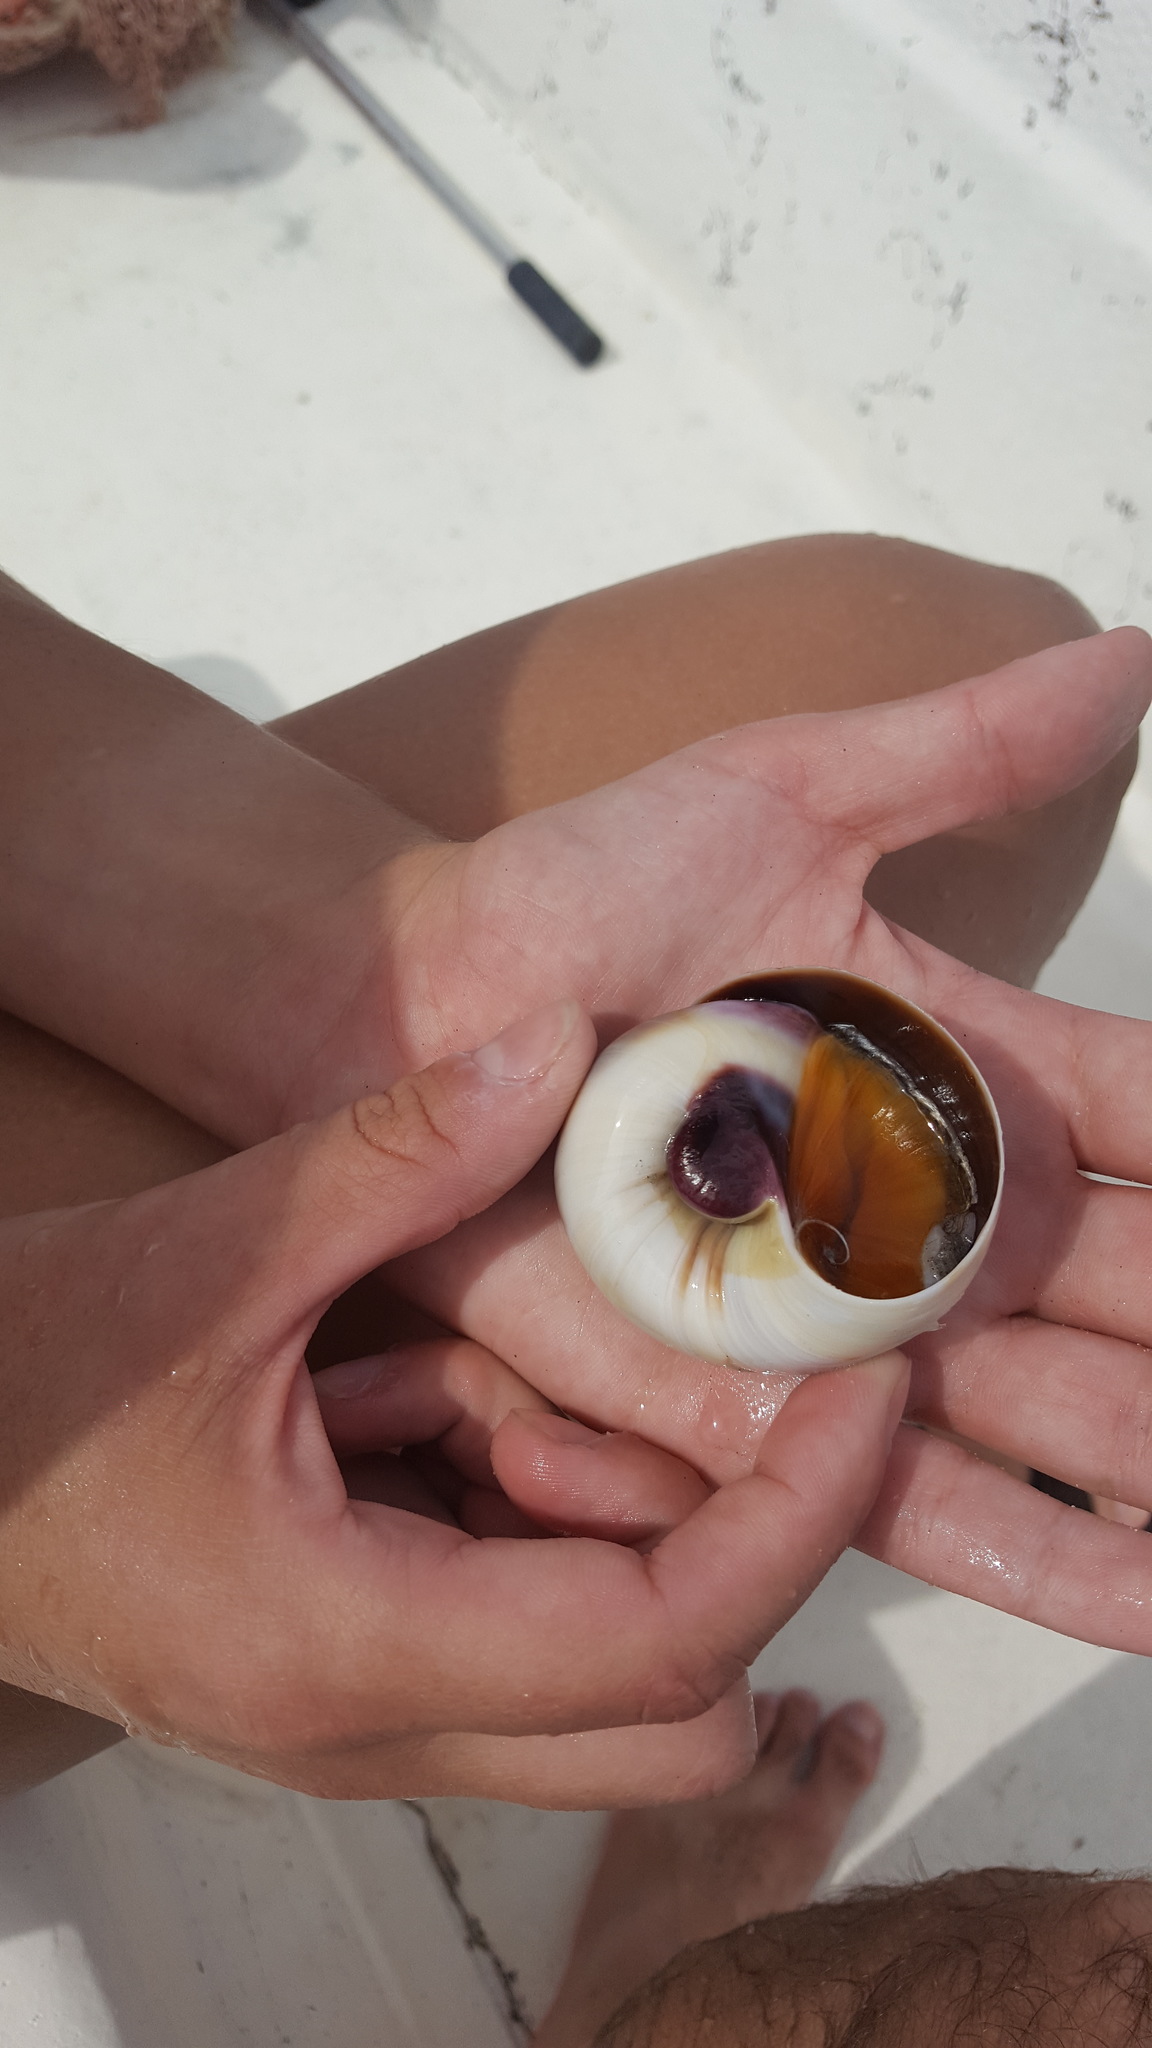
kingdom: Animalia
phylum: Mollusca
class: Gastropoda
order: Littorinimorpha
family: Naticidae
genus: Neverita
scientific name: Neverita duplicata
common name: Lobed moonsnail
